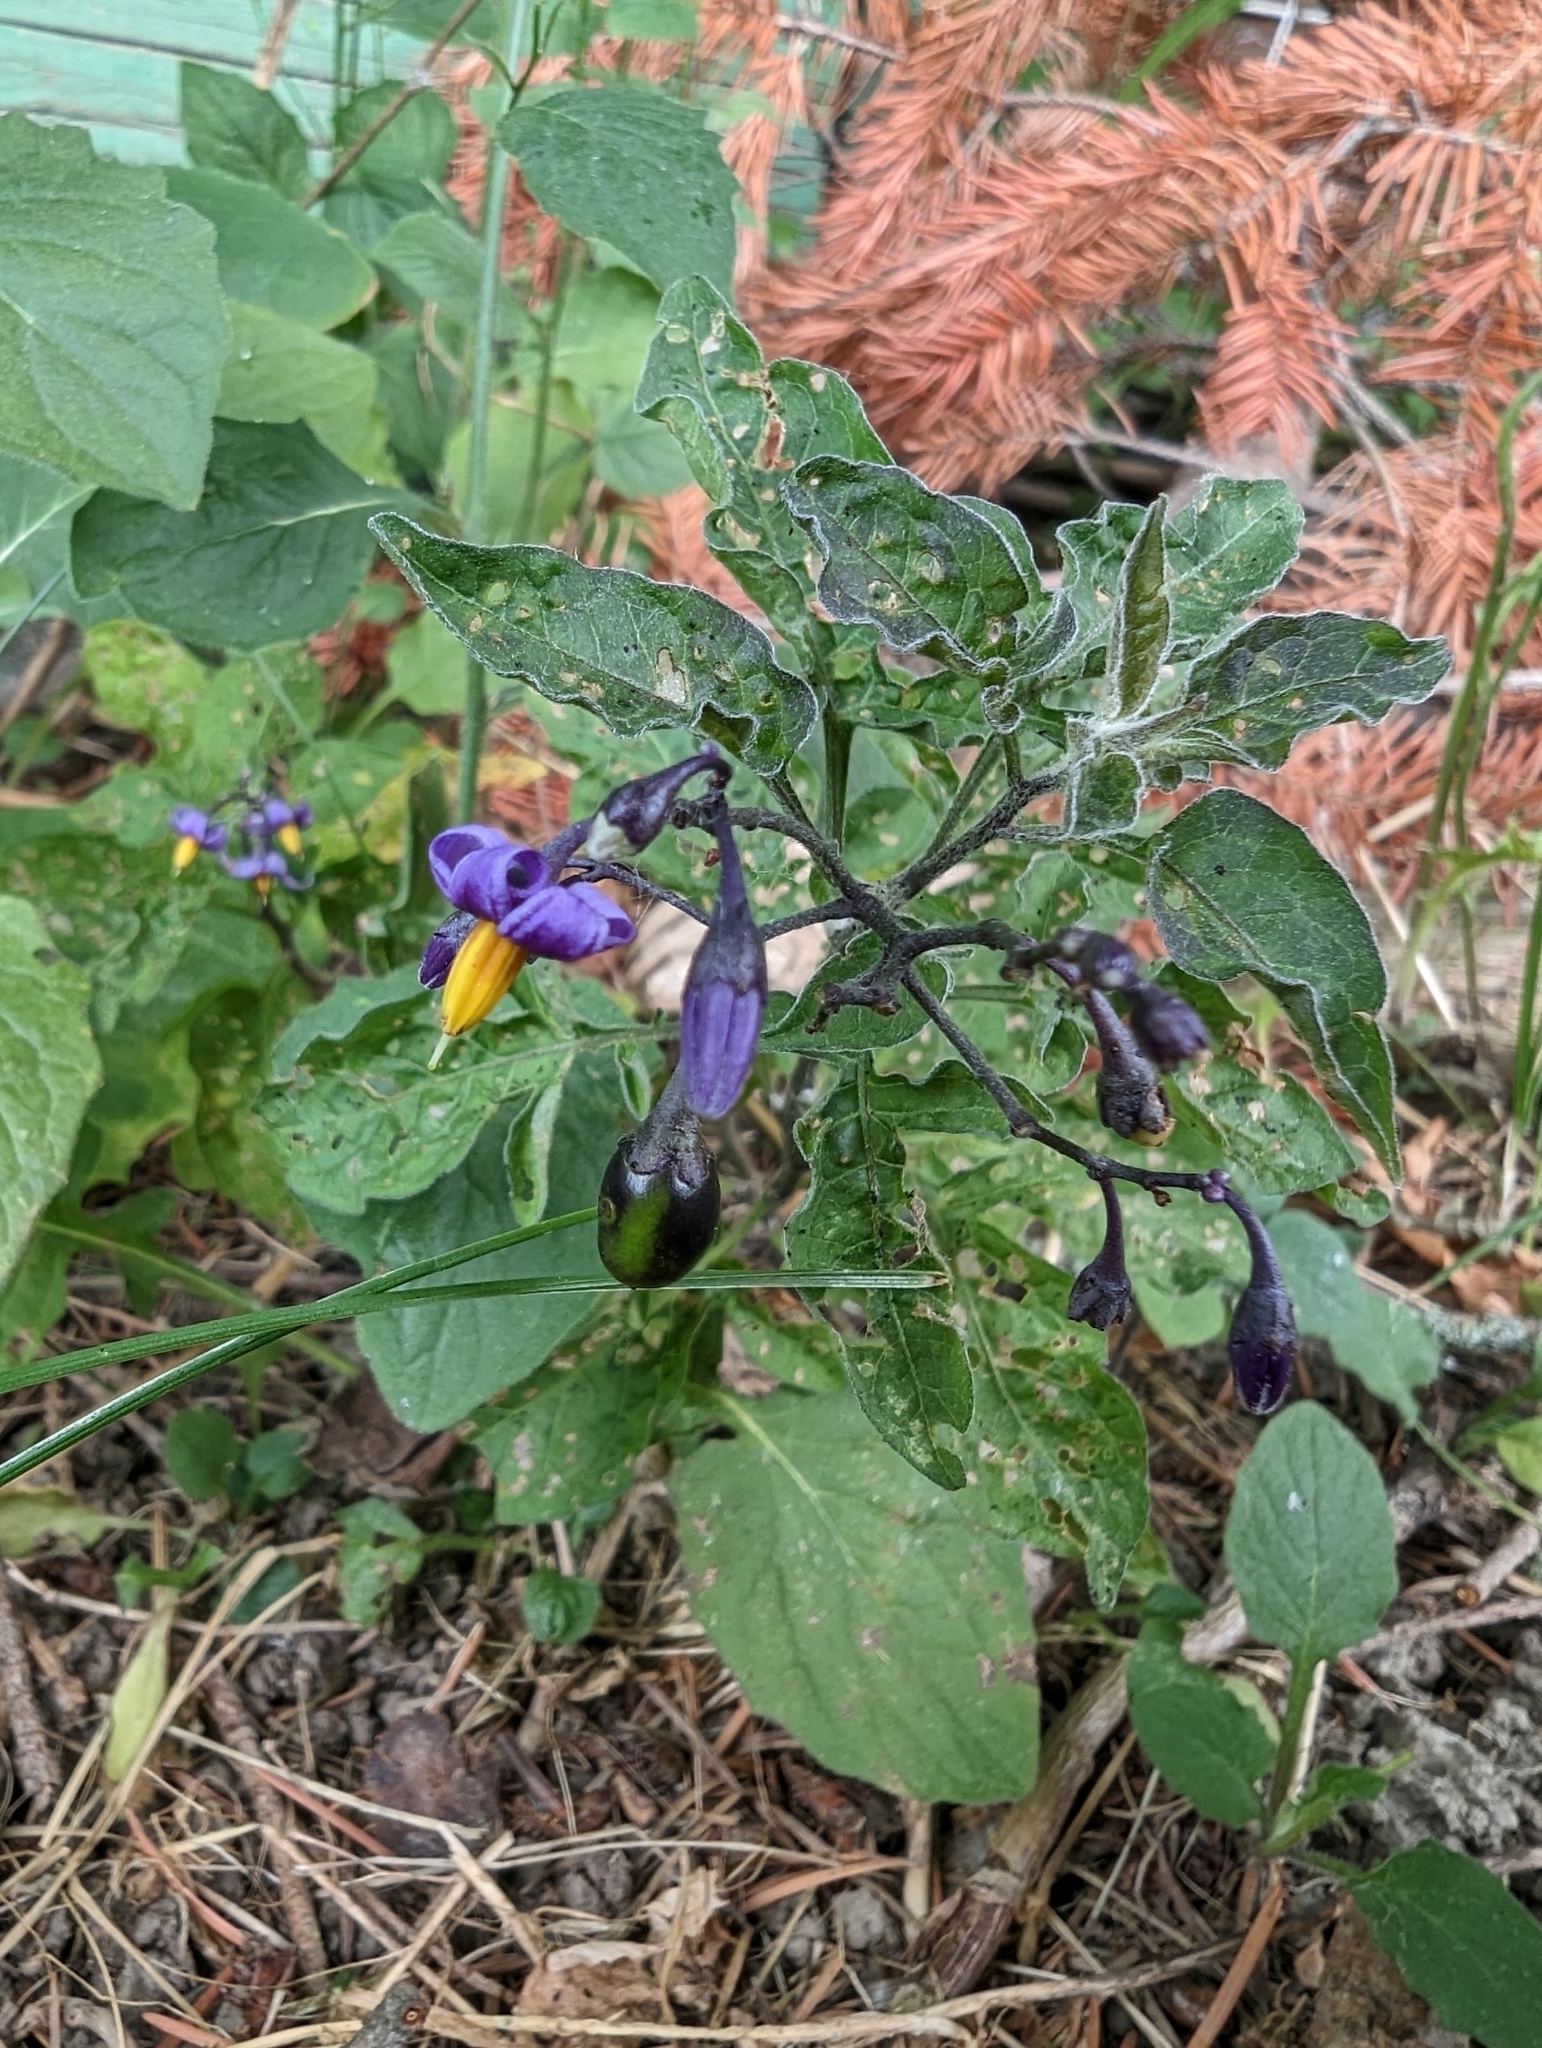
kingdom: Plantae
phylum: Tracheophyta
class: Magnoliopsida
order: Solanales
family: Solanaceae
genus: Solanum
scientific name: Solanum dulcamara
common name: Climbing nightshade
